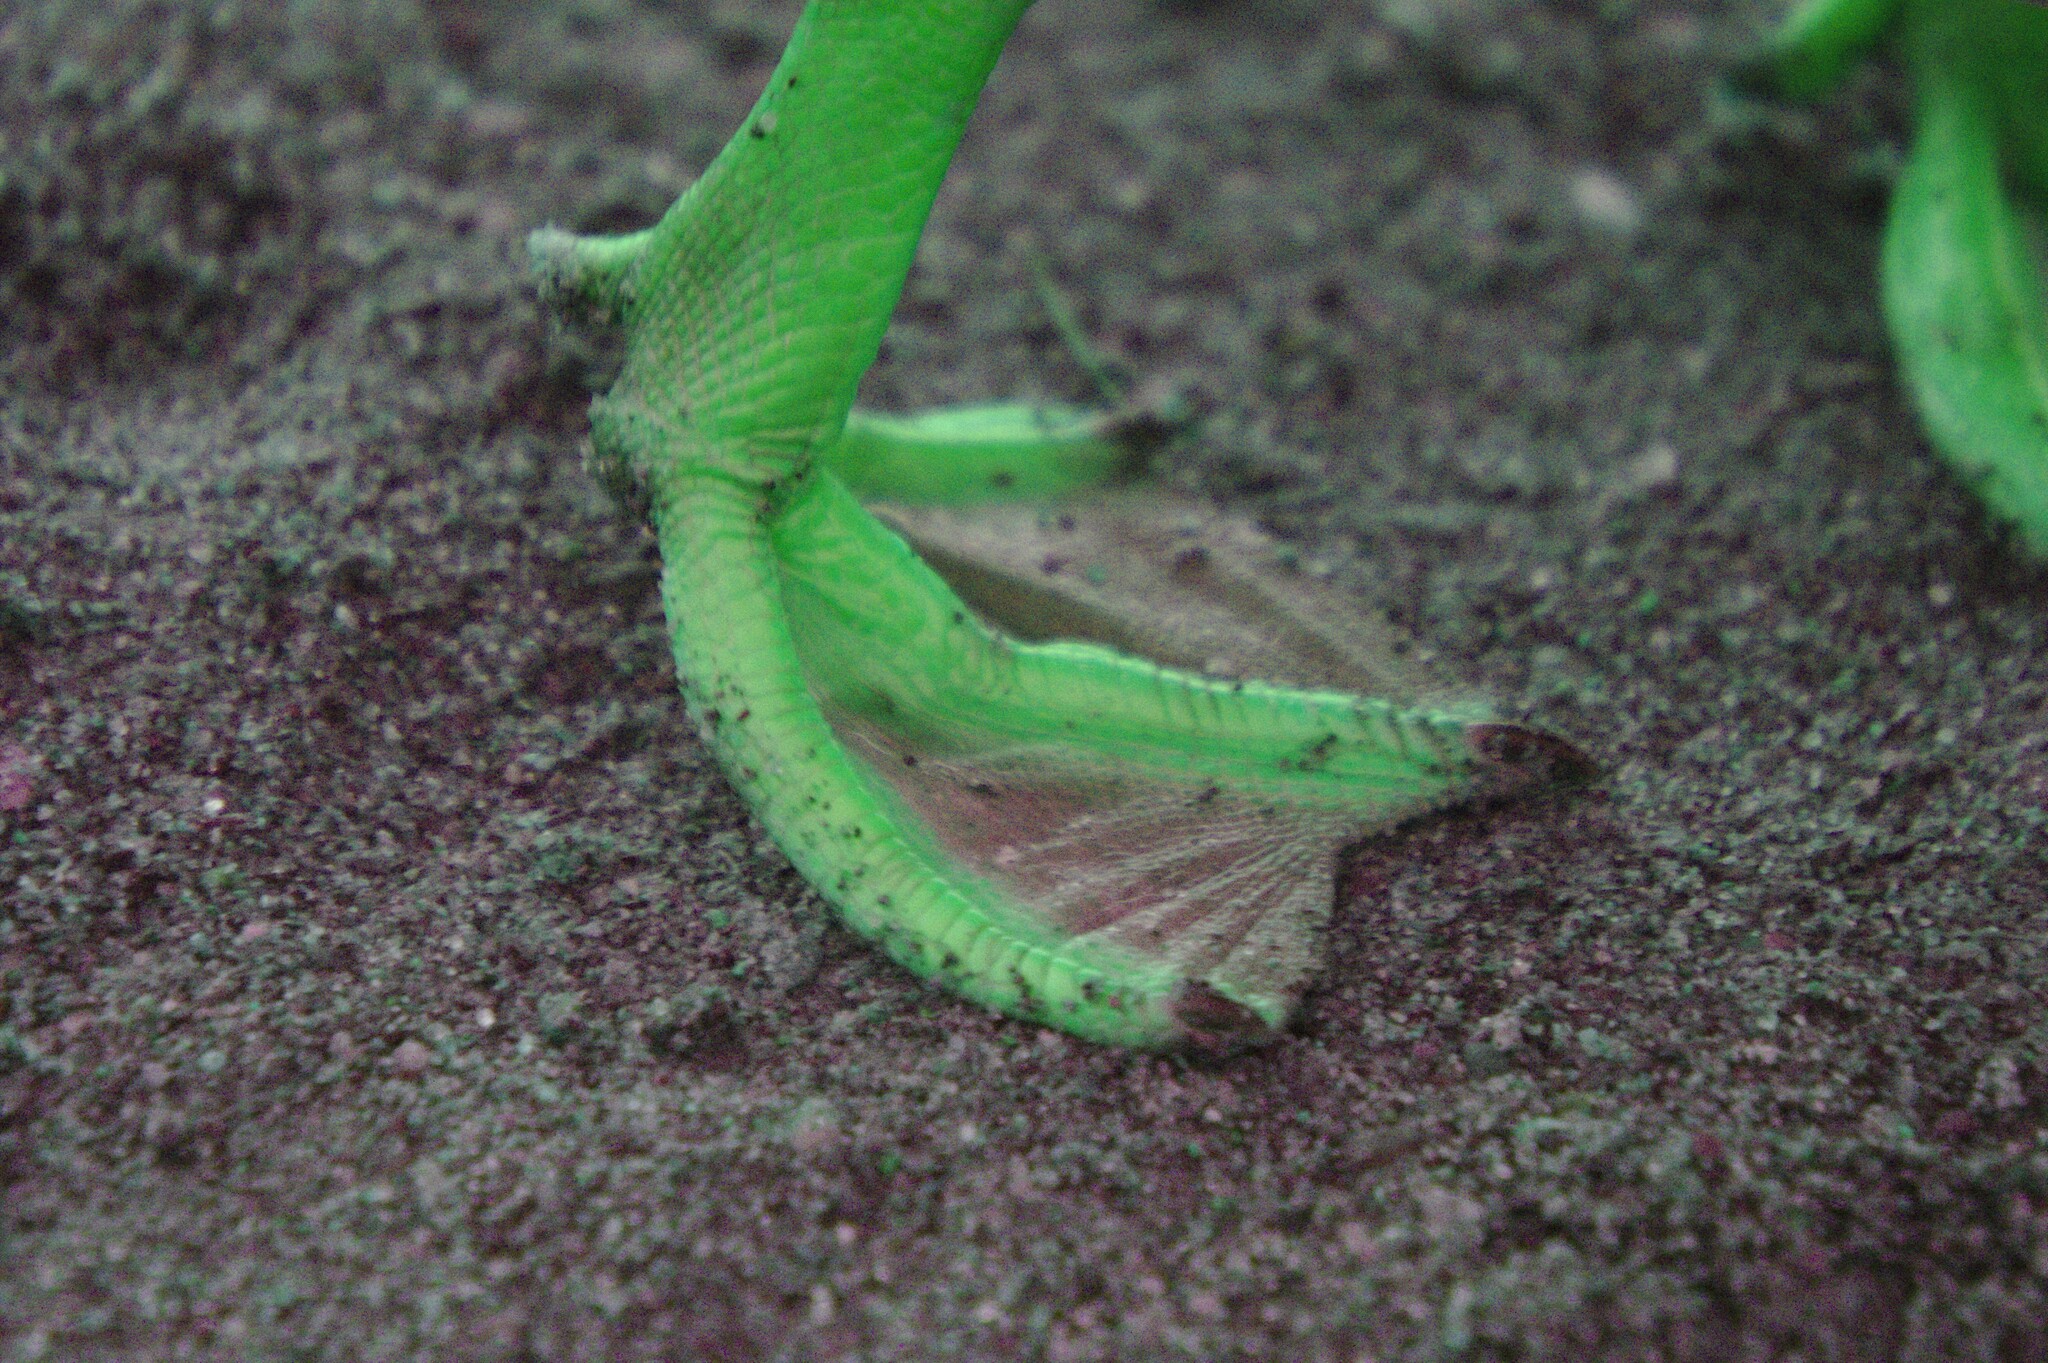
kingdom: Animalia
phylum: Chordata
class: Aves
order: Anseriformes
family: Anatidae
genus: Anas
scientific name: Anas platyrhynchos
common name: Mallard
